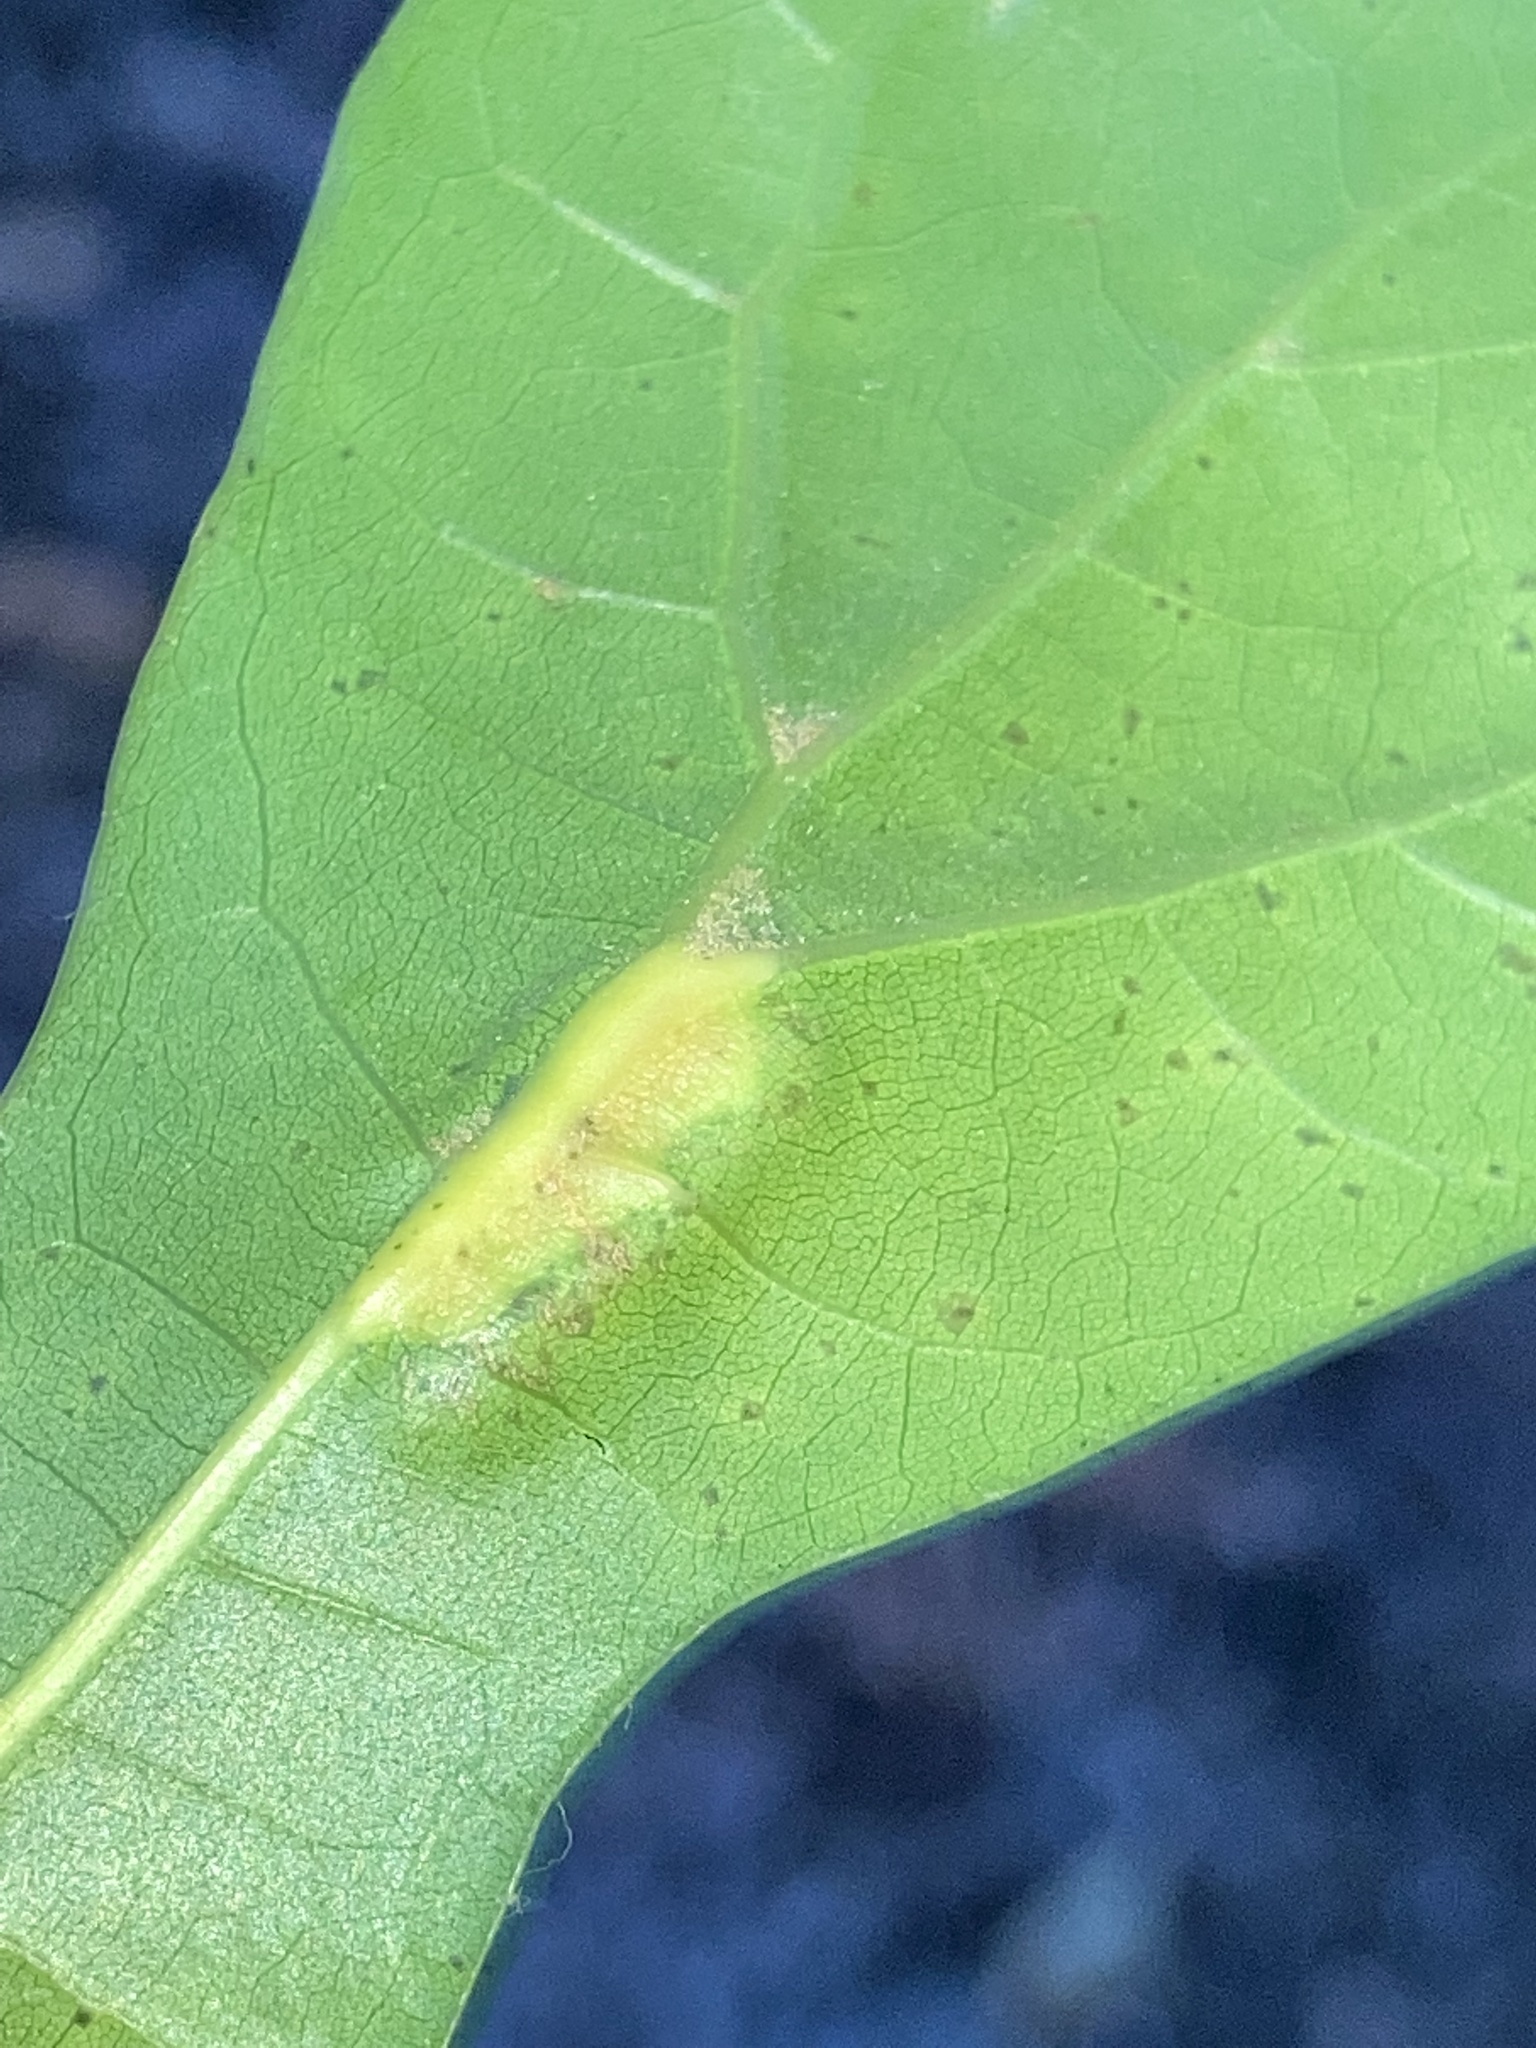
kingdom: Animalia
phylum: Arthropoda
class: Insecta
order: Diptera
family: Cecidomyiidae
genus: Polystepha
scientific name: Polystepha pilulae
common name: Oak leaf gall midge
